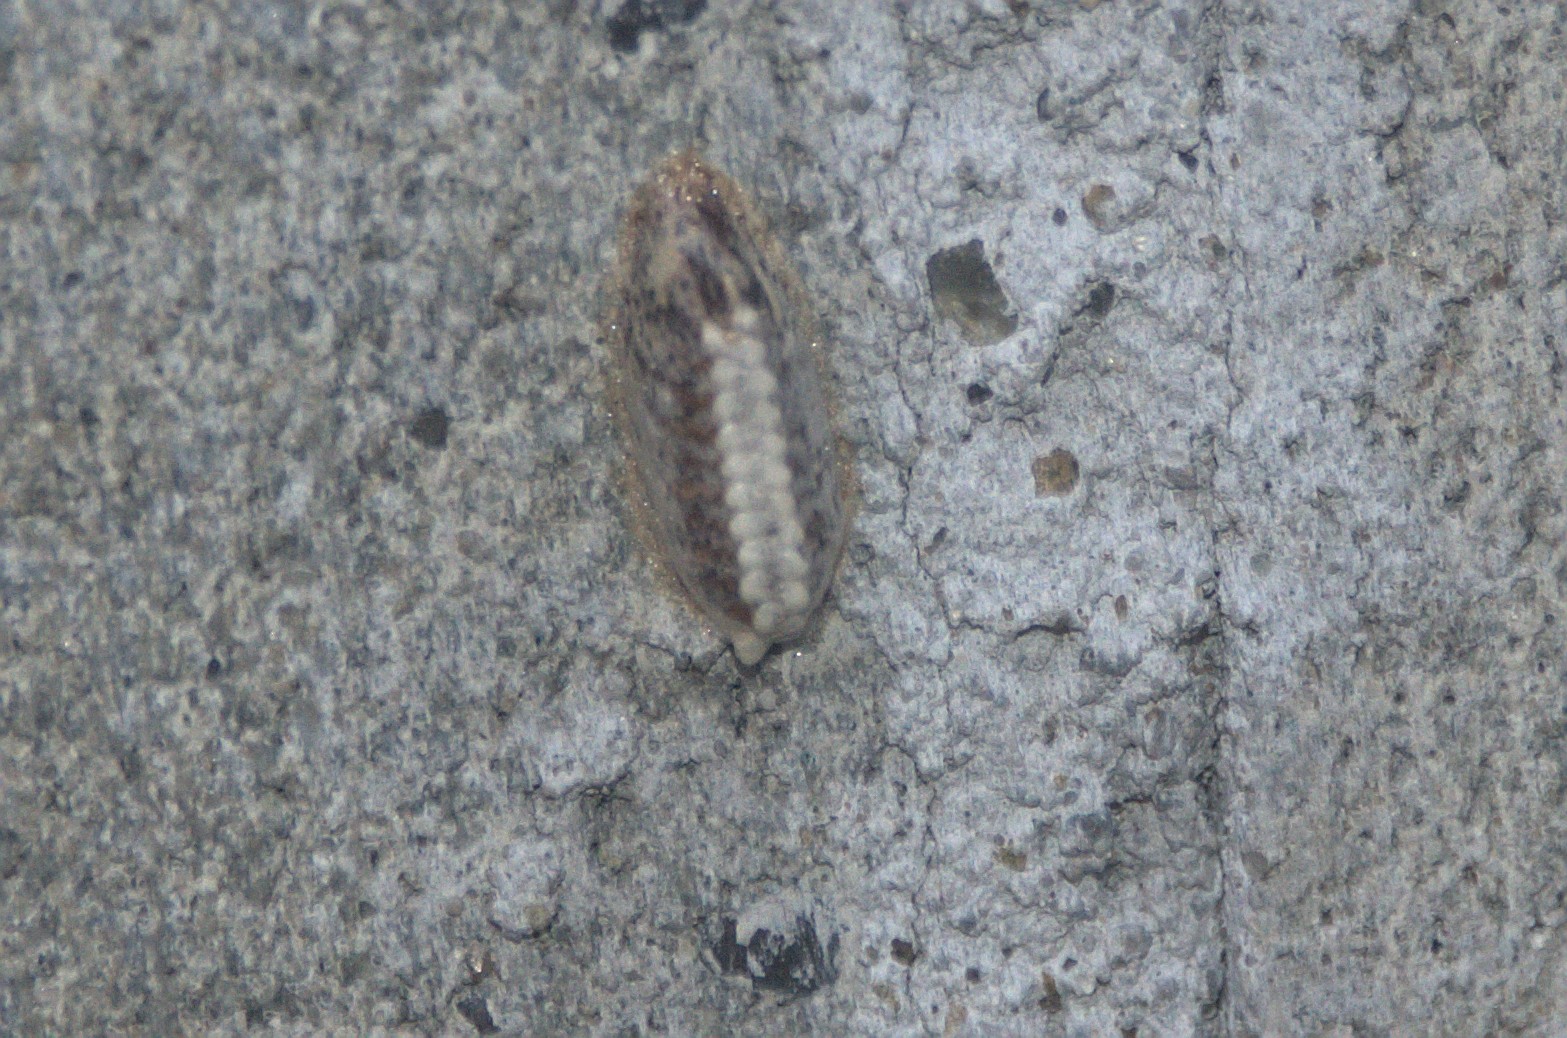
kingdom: Animalia
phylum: Arthropoda
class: Insecta
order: Mantodea
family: Mantidae
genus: Orthodera
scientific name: Orthodera novaezealandiae
